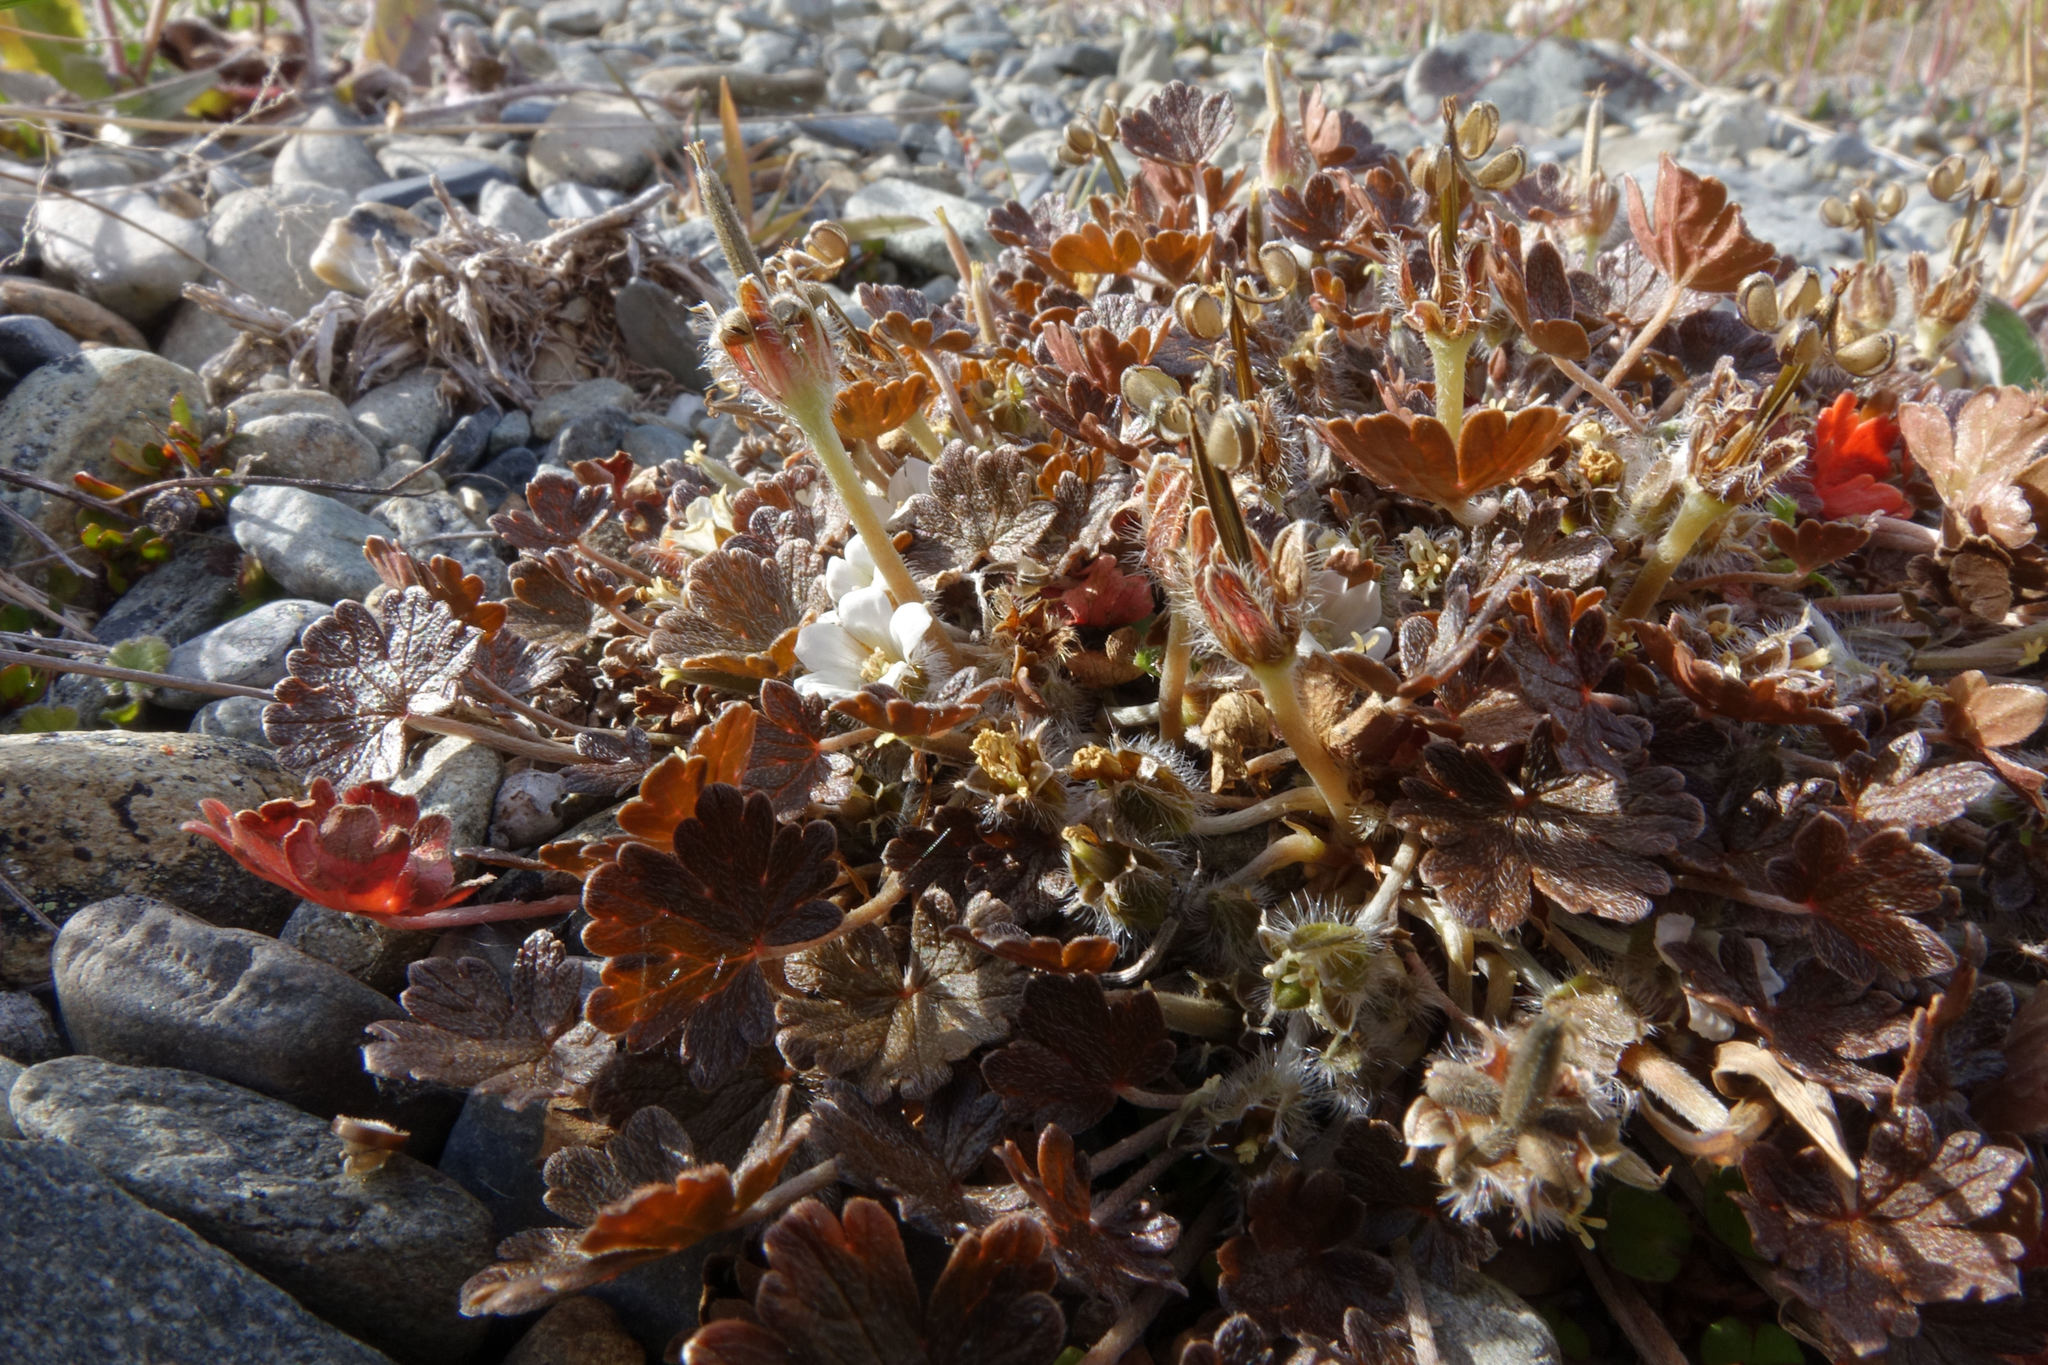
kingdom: Plantae
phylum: Tracheophyta
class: Magnoliopsida
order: Geraniales
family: Geraniaceae
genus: Geranium
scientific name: Geranium brevicaule
